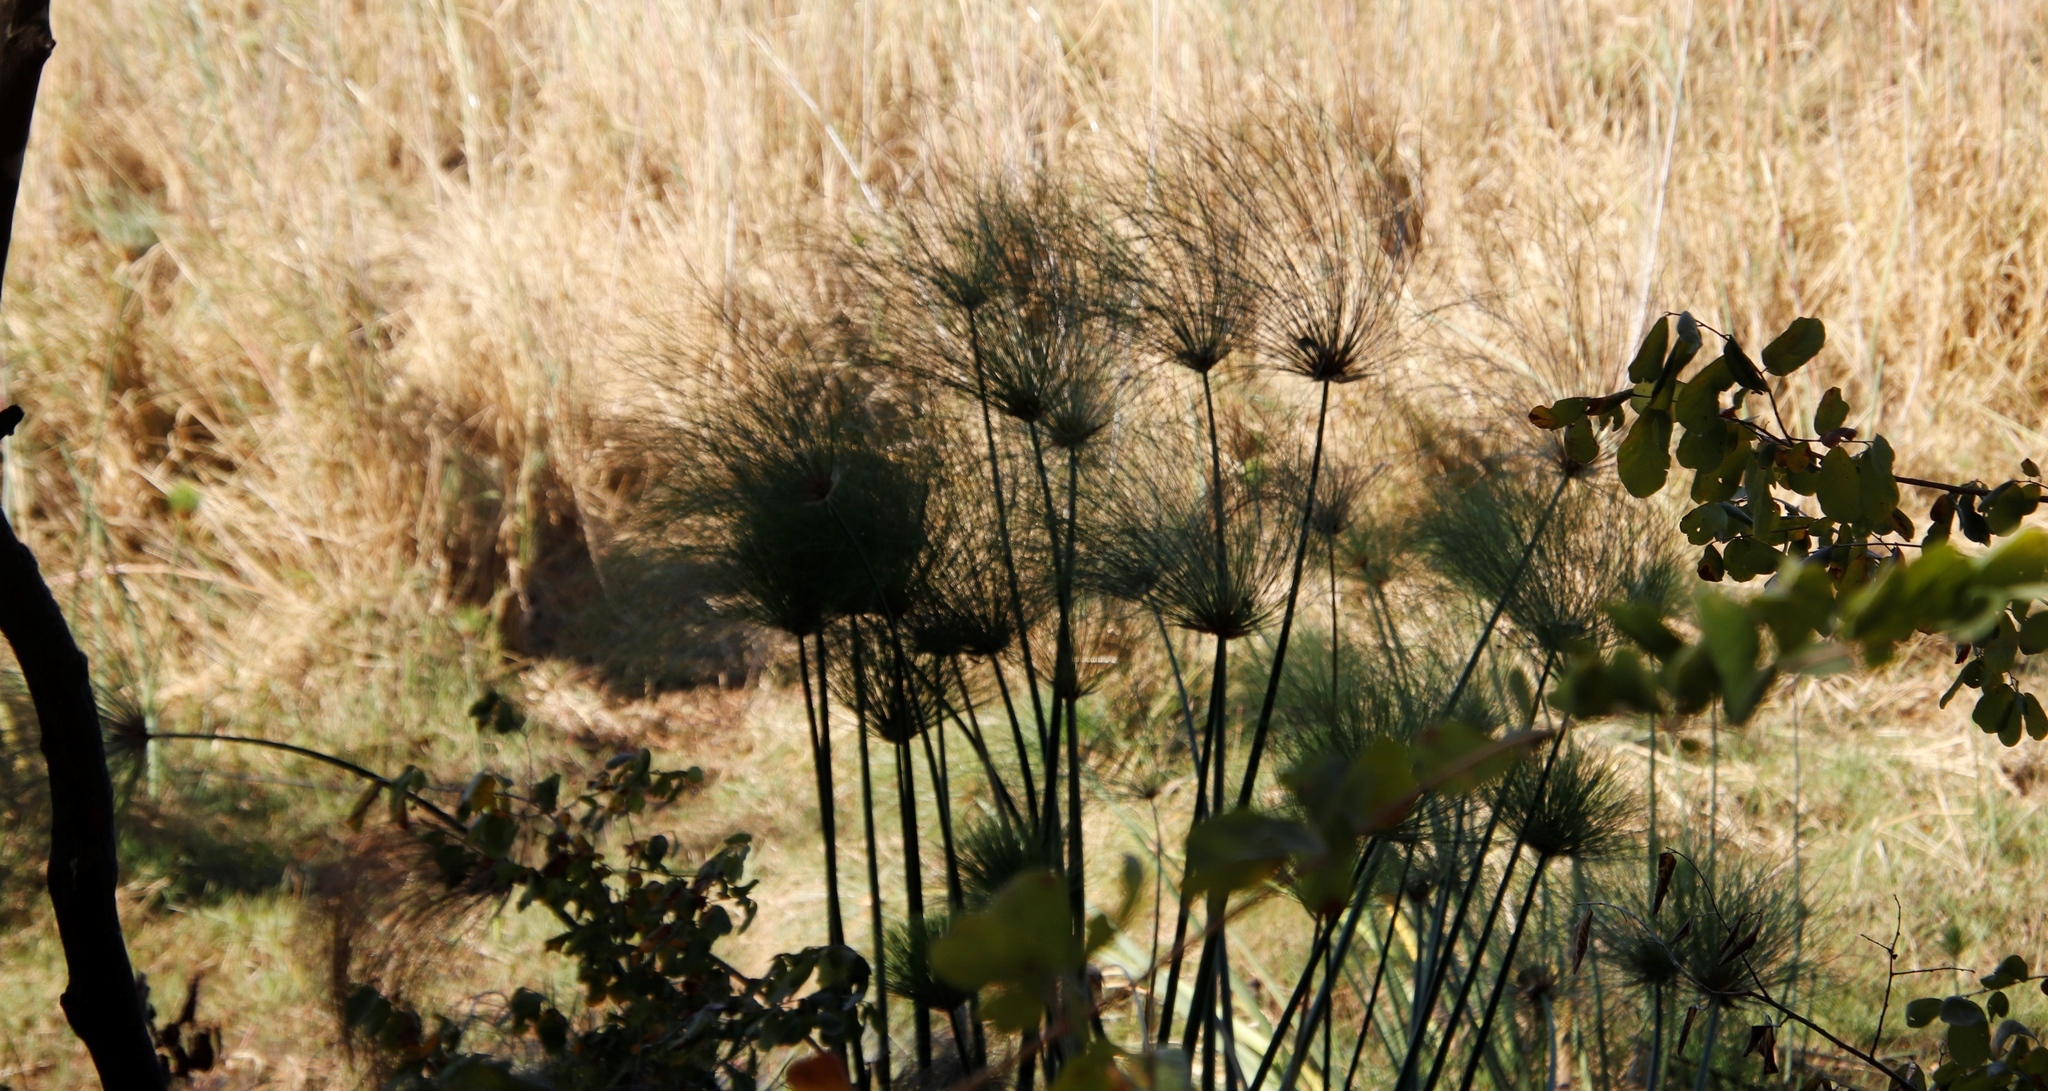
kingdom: Plantae
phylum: Tracheophyta
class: Liliopsida
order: Poales
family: Cyperaceae
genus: Cyperus
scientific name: Cyperus papyrus
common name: Papyrus
